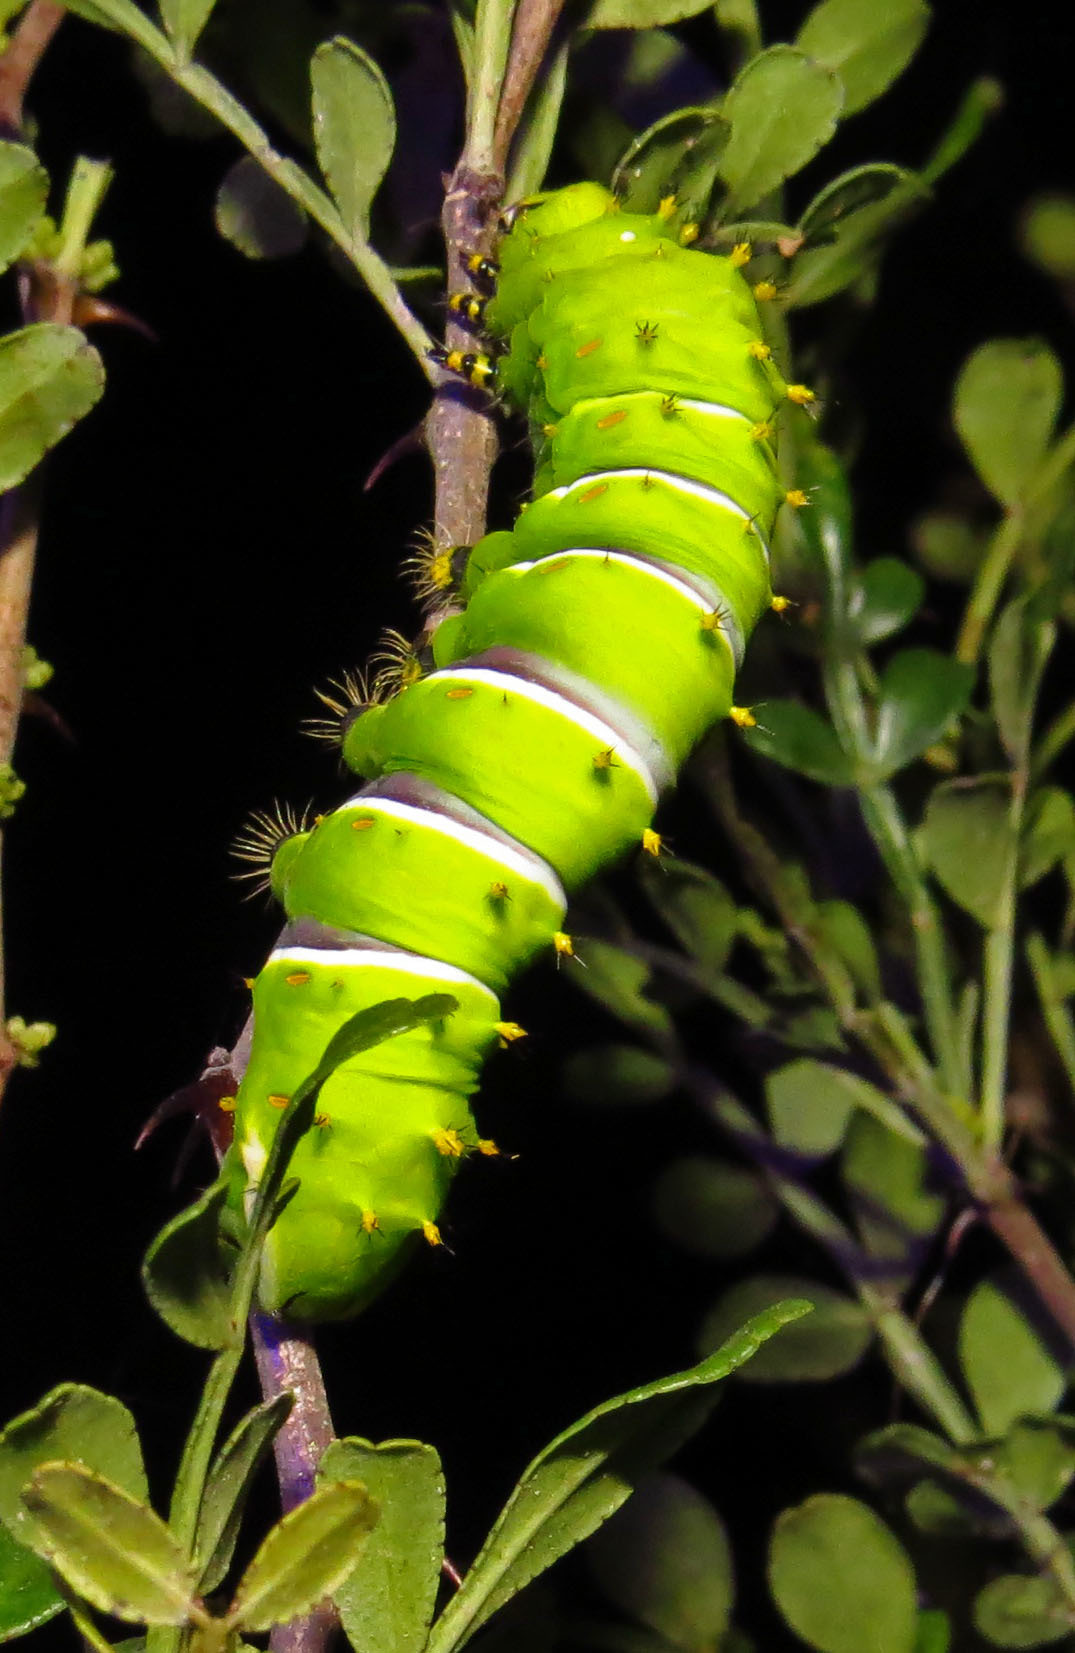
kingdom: Animalia
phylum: Arthropoda
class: Insecta
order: Lepidoptera
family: Saturniidae
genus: Rothschildia
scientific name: Rothschildia lebeau
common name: Lebeau's rothschildia
